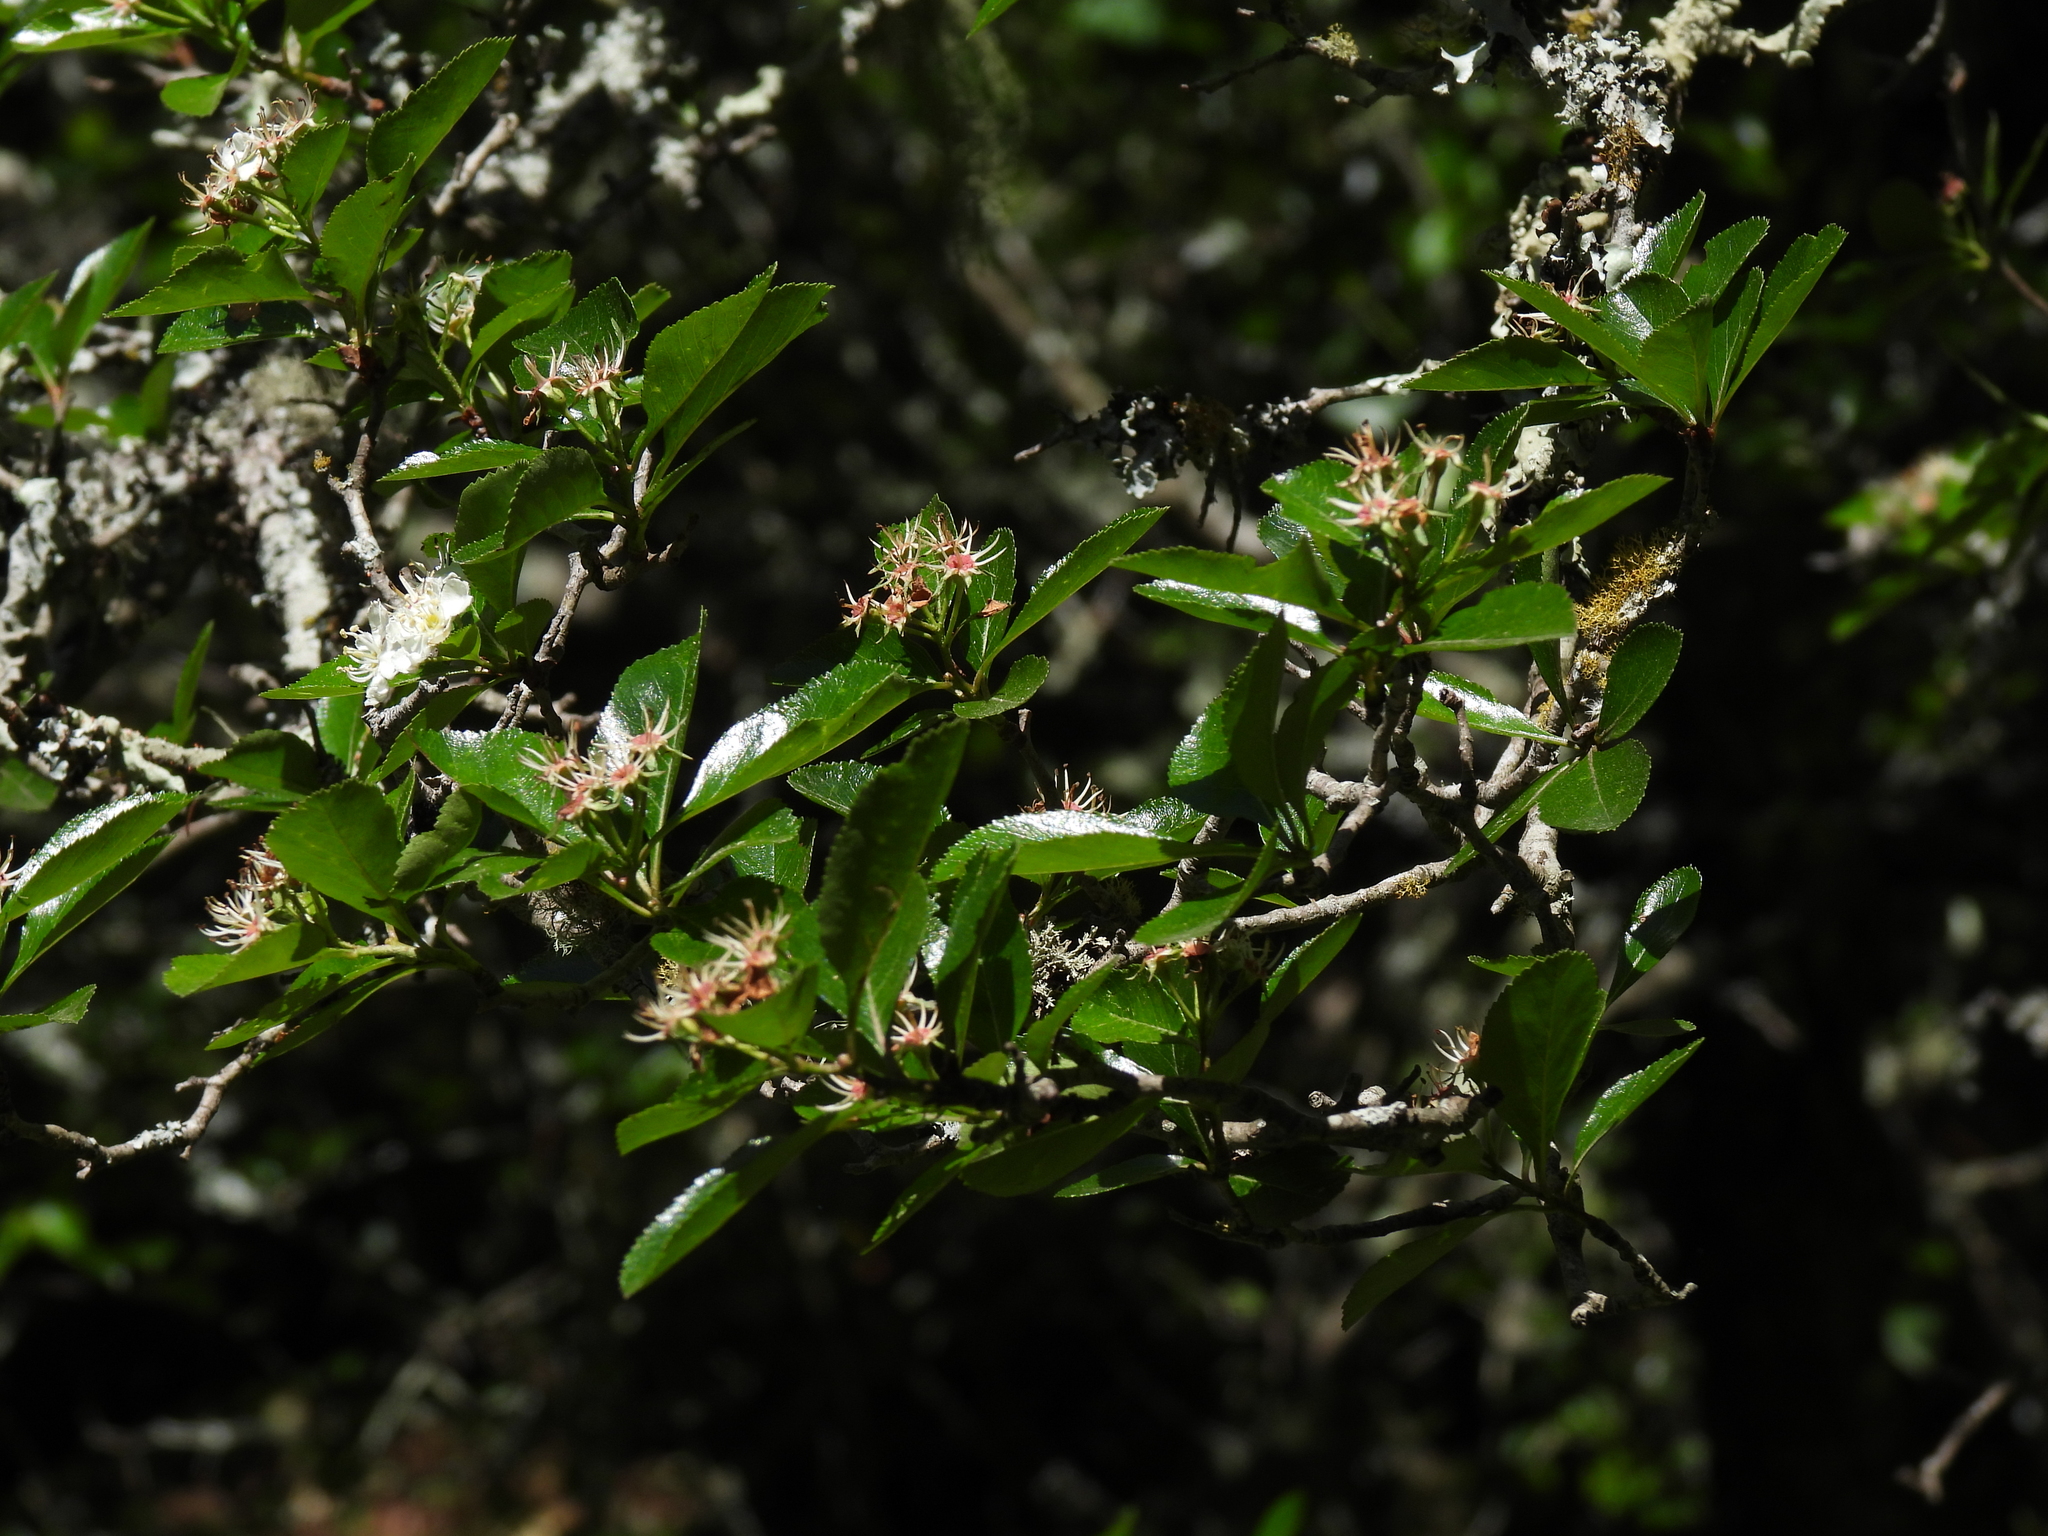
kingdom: Plantae
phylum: Tracheophyta
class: Magnoliopsida
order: Rosales
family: Rosaceae
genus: Malacomeles
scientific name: Malacomeles denticulata
